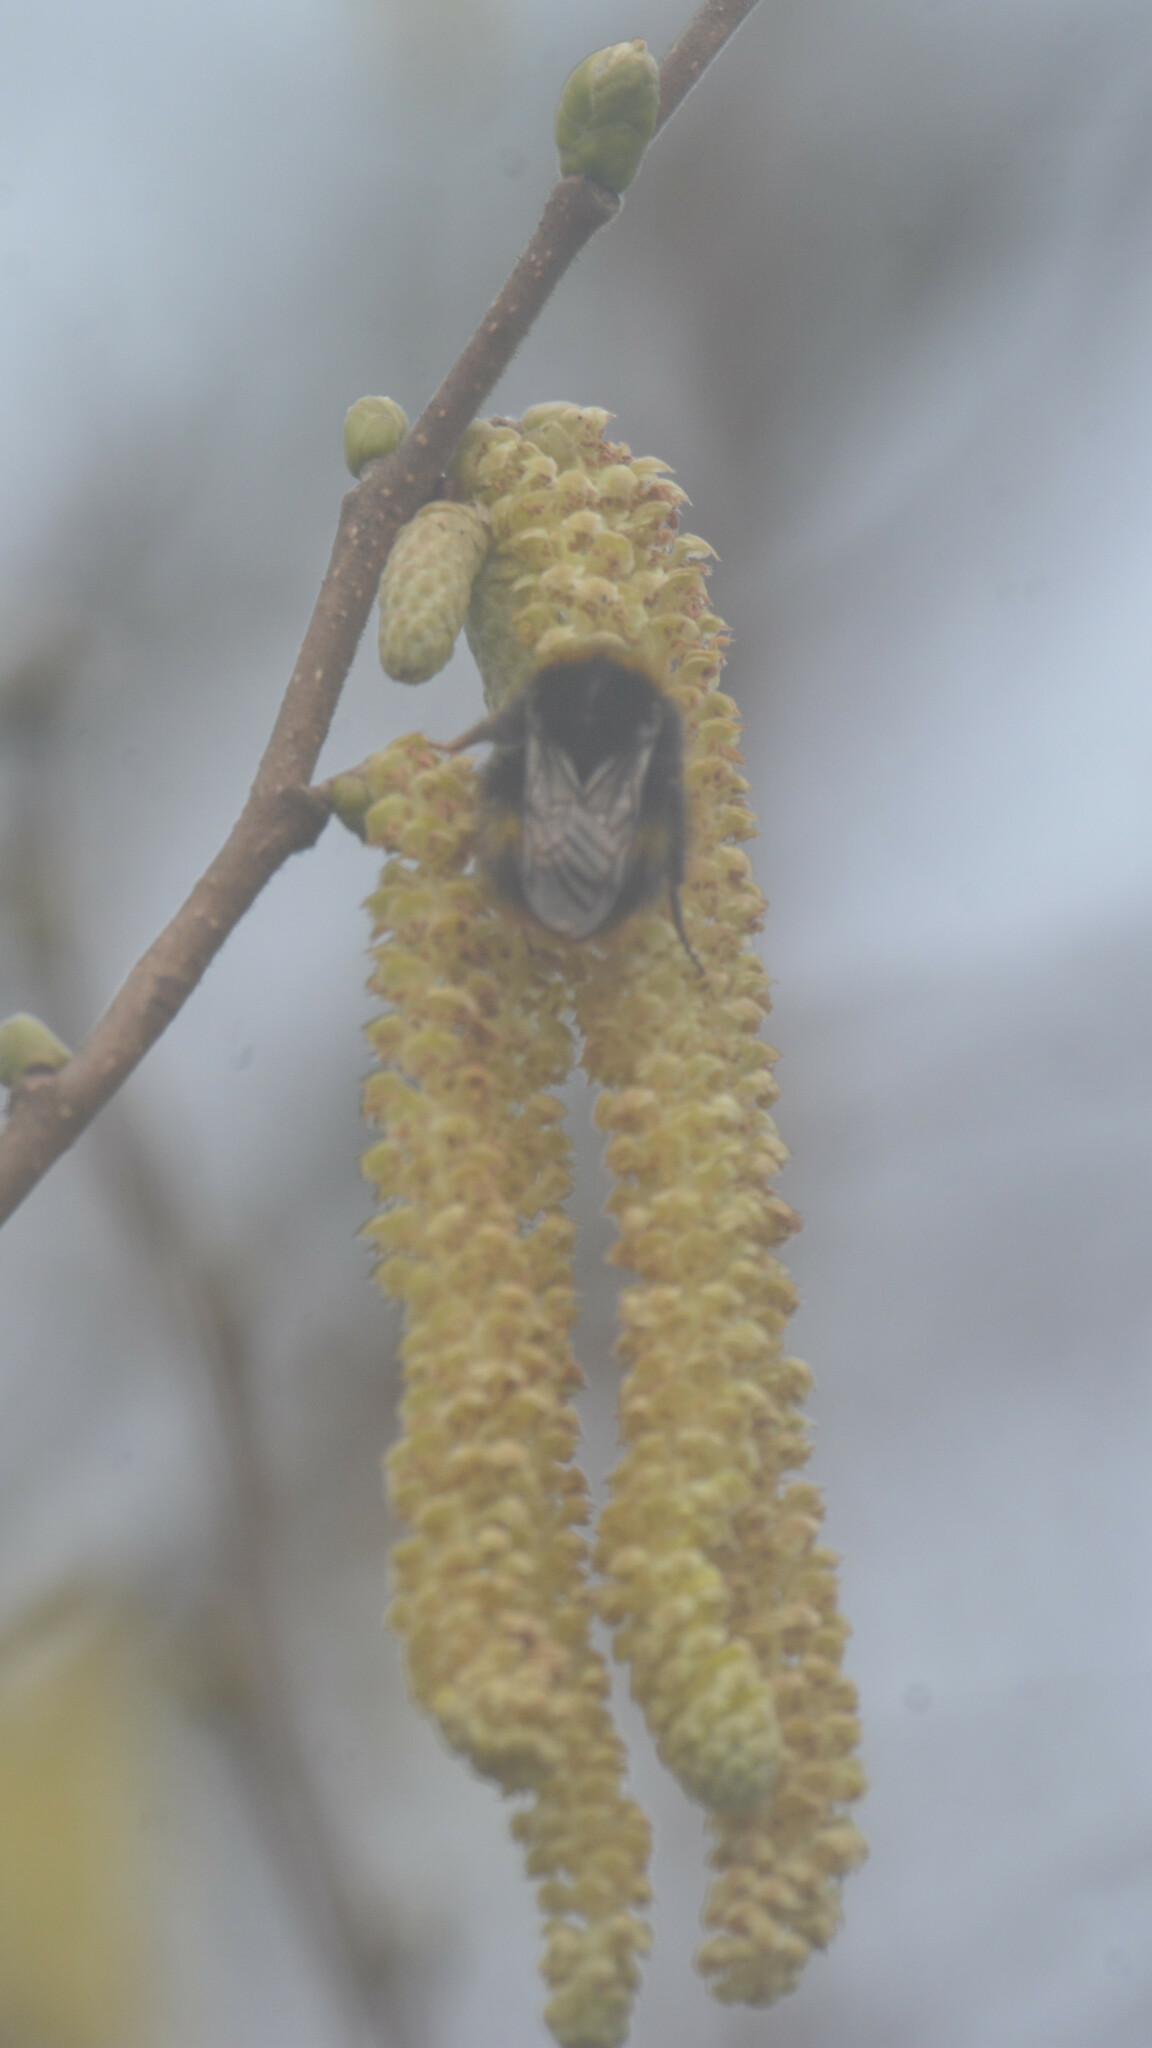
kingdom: Animalia
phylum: Arthropoda
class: Insecta
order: Hymenoptera
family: Apidae
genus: Bombus
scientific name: Bombus pratorum
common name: Early humble-bee
